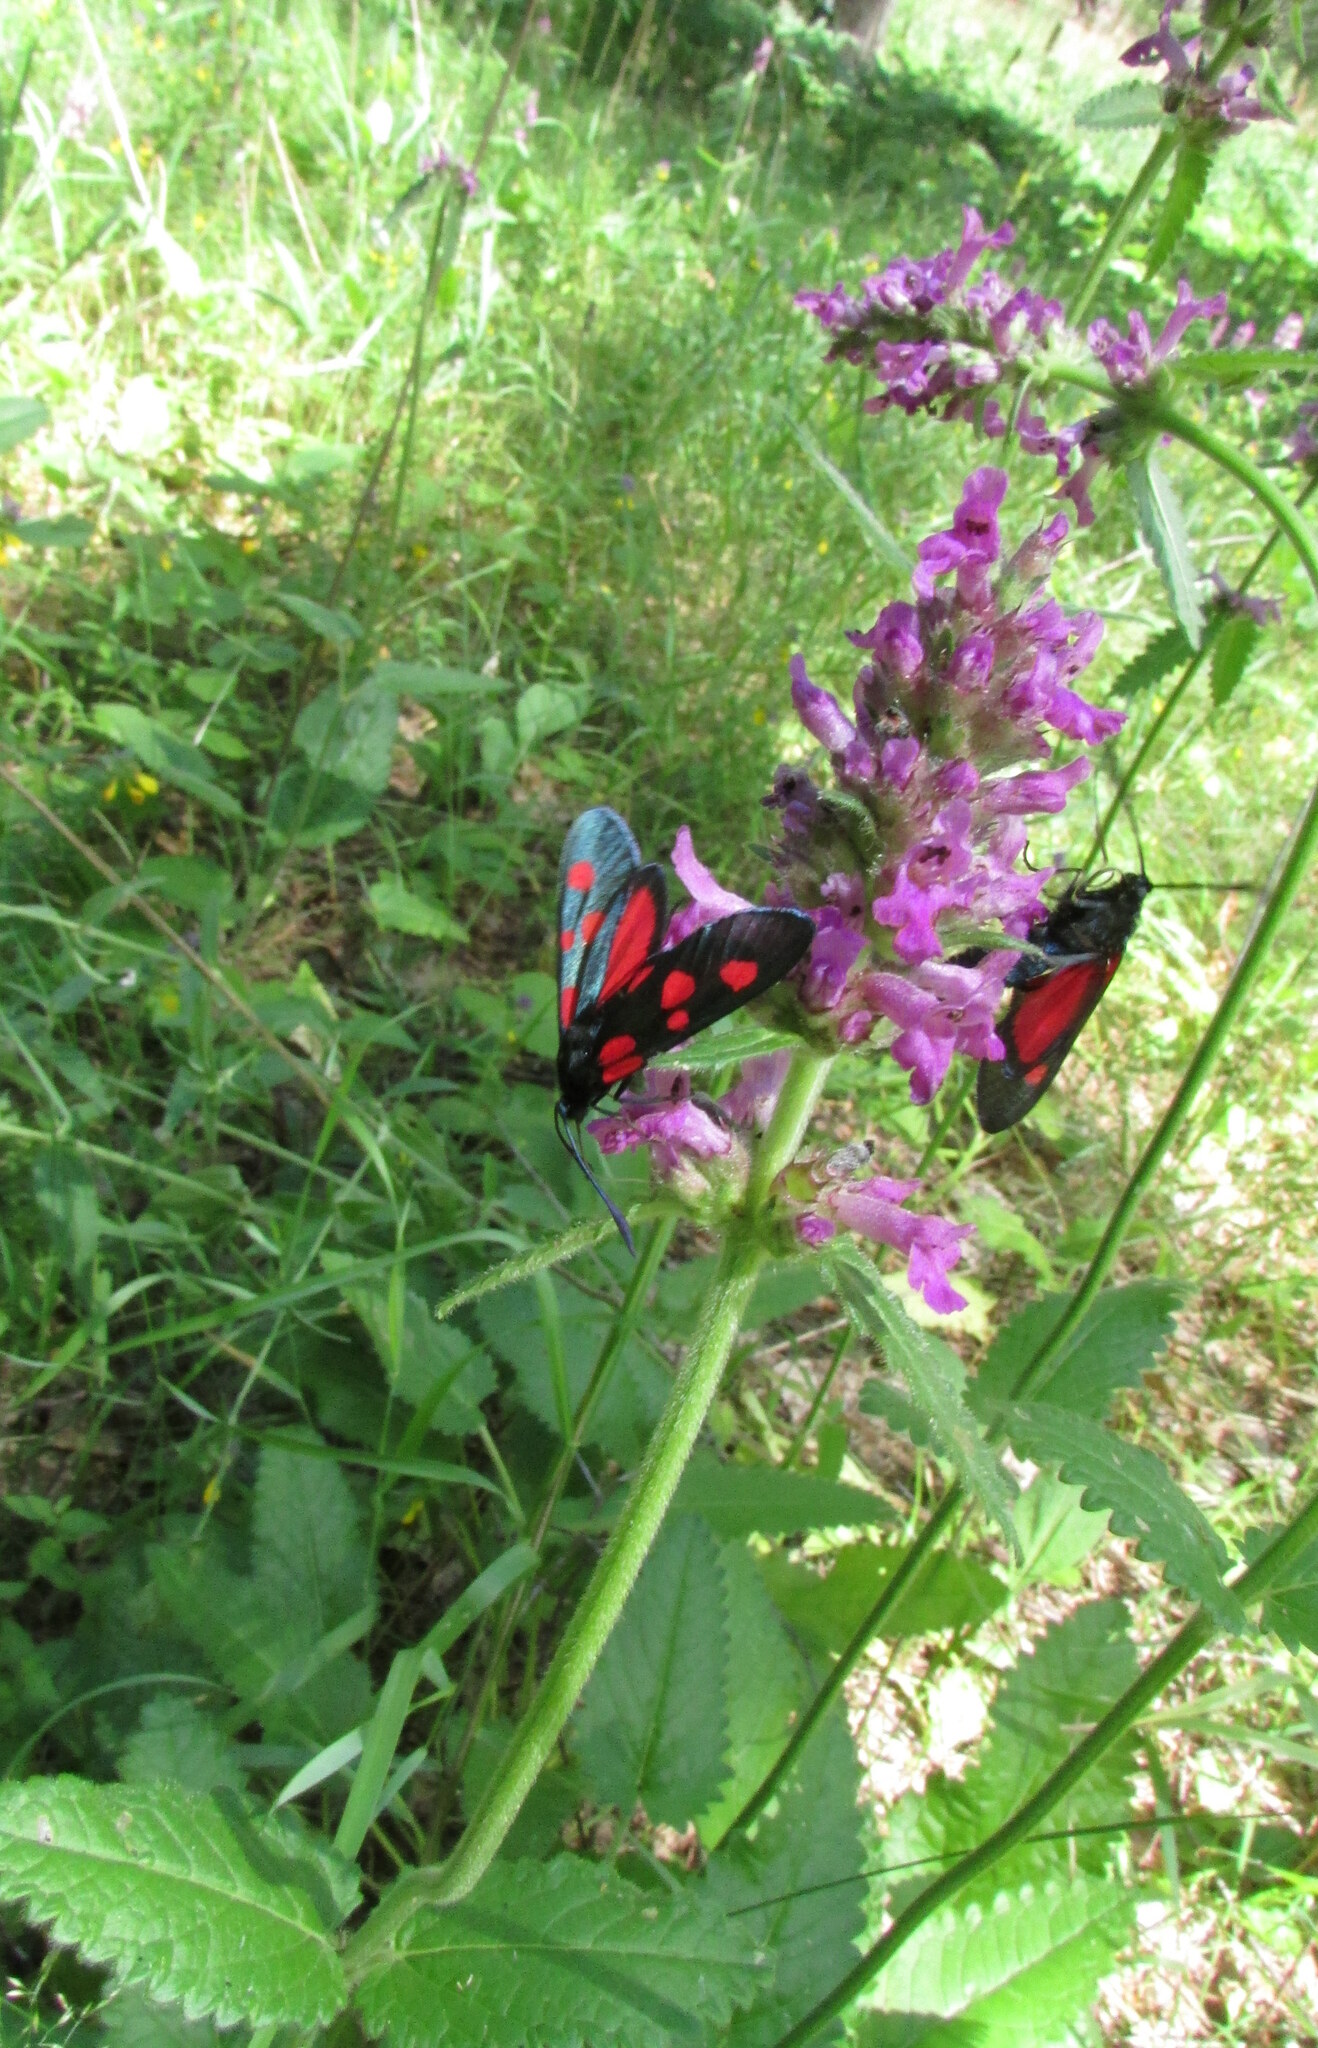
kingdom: Plantae
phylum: Tracheophyta
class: Magnoliopsida
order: Lamiales
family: Lamiaceae
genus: Betonica
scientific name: Betonica officinalis
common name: Bishop's-wort
